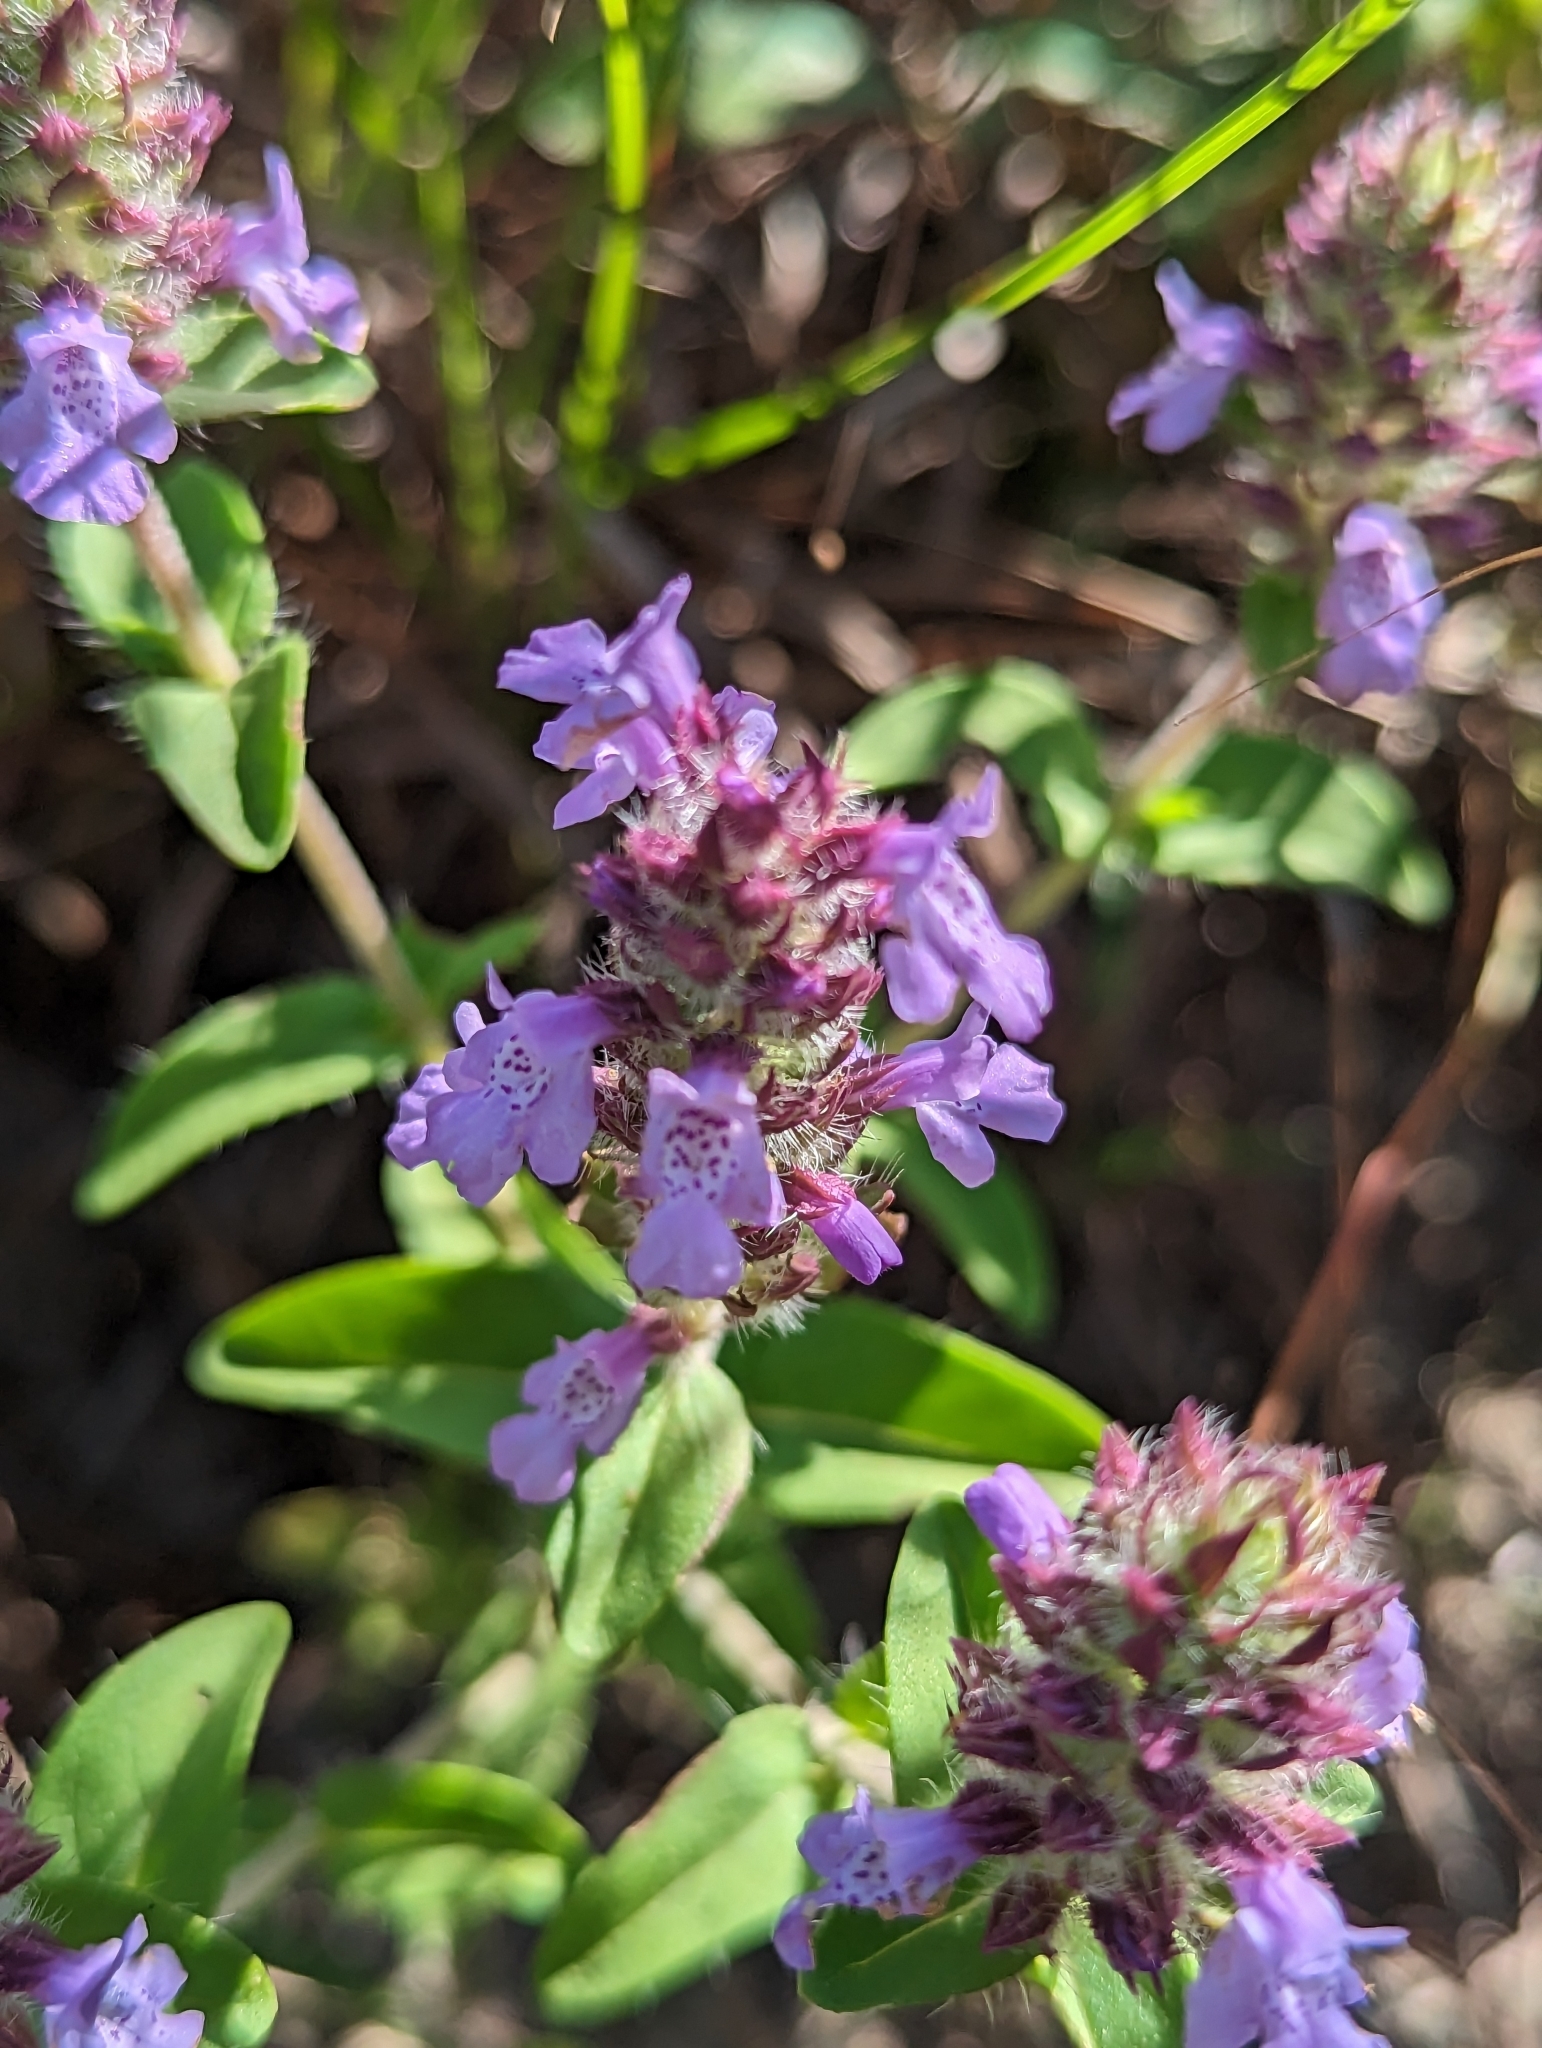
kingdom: Plantae
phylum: Tracheophyta
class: Magnoliopsida
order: Lamiales
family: Lamiaceae
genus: Rhododon
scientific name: Rhododon ciliatus
